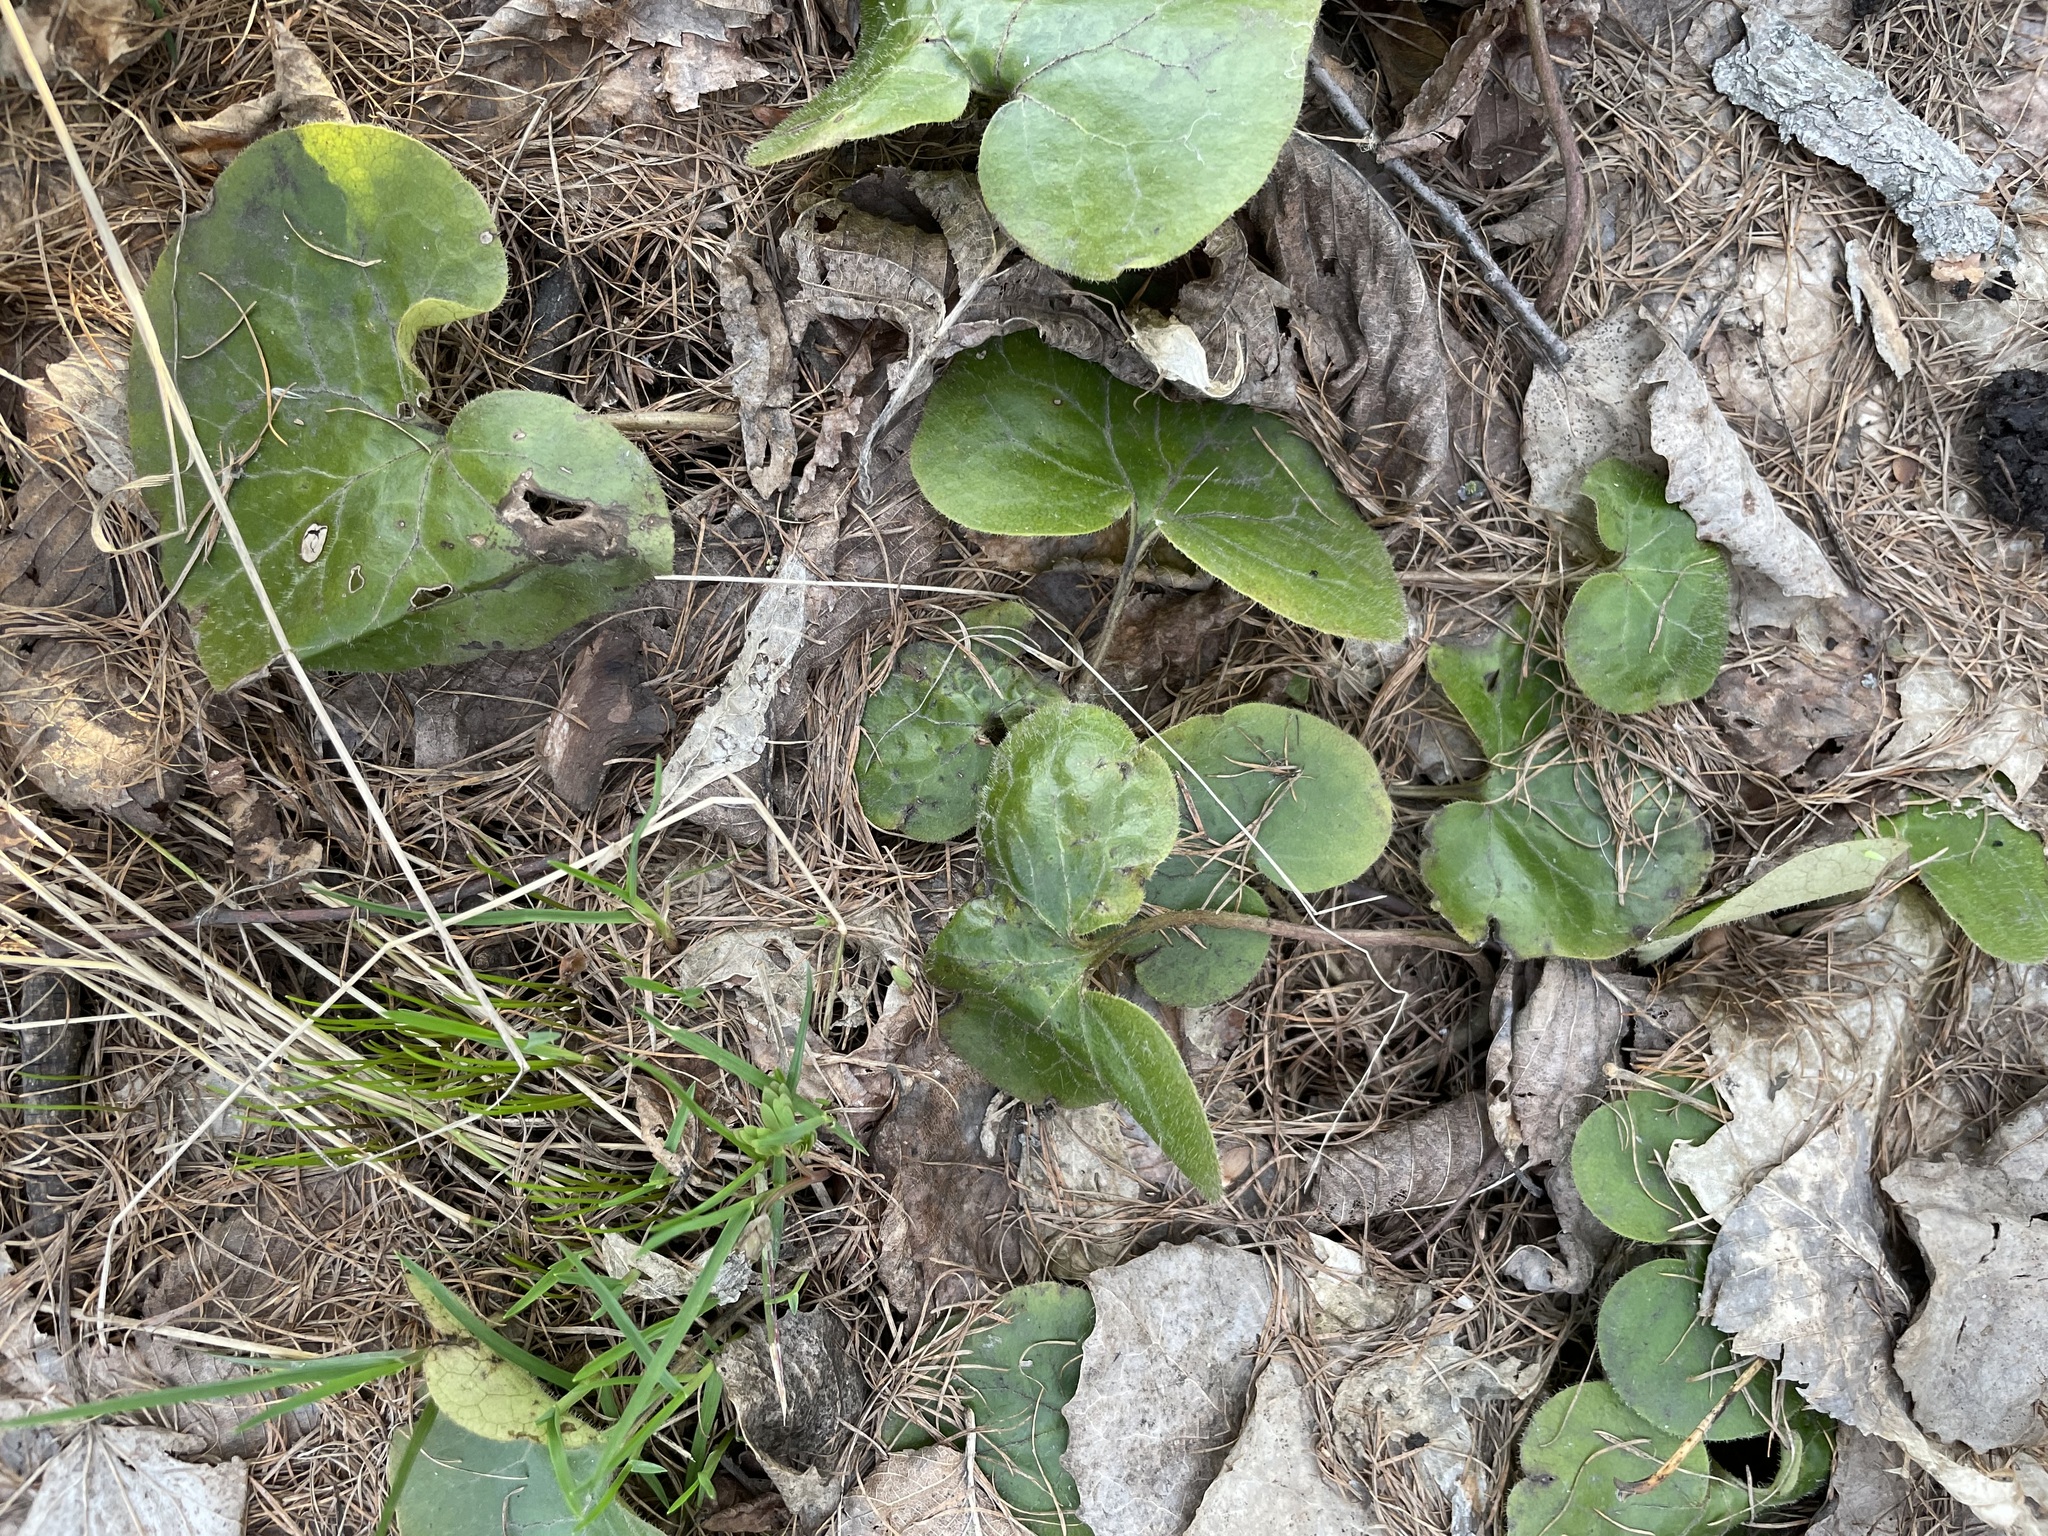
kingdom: Plantae
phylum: Tracheophyta
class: Magnoliopsida
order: Piperales
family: Aristolochiaceae
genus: Asarum
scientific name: Asarum europaeum
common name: Asarabacca
